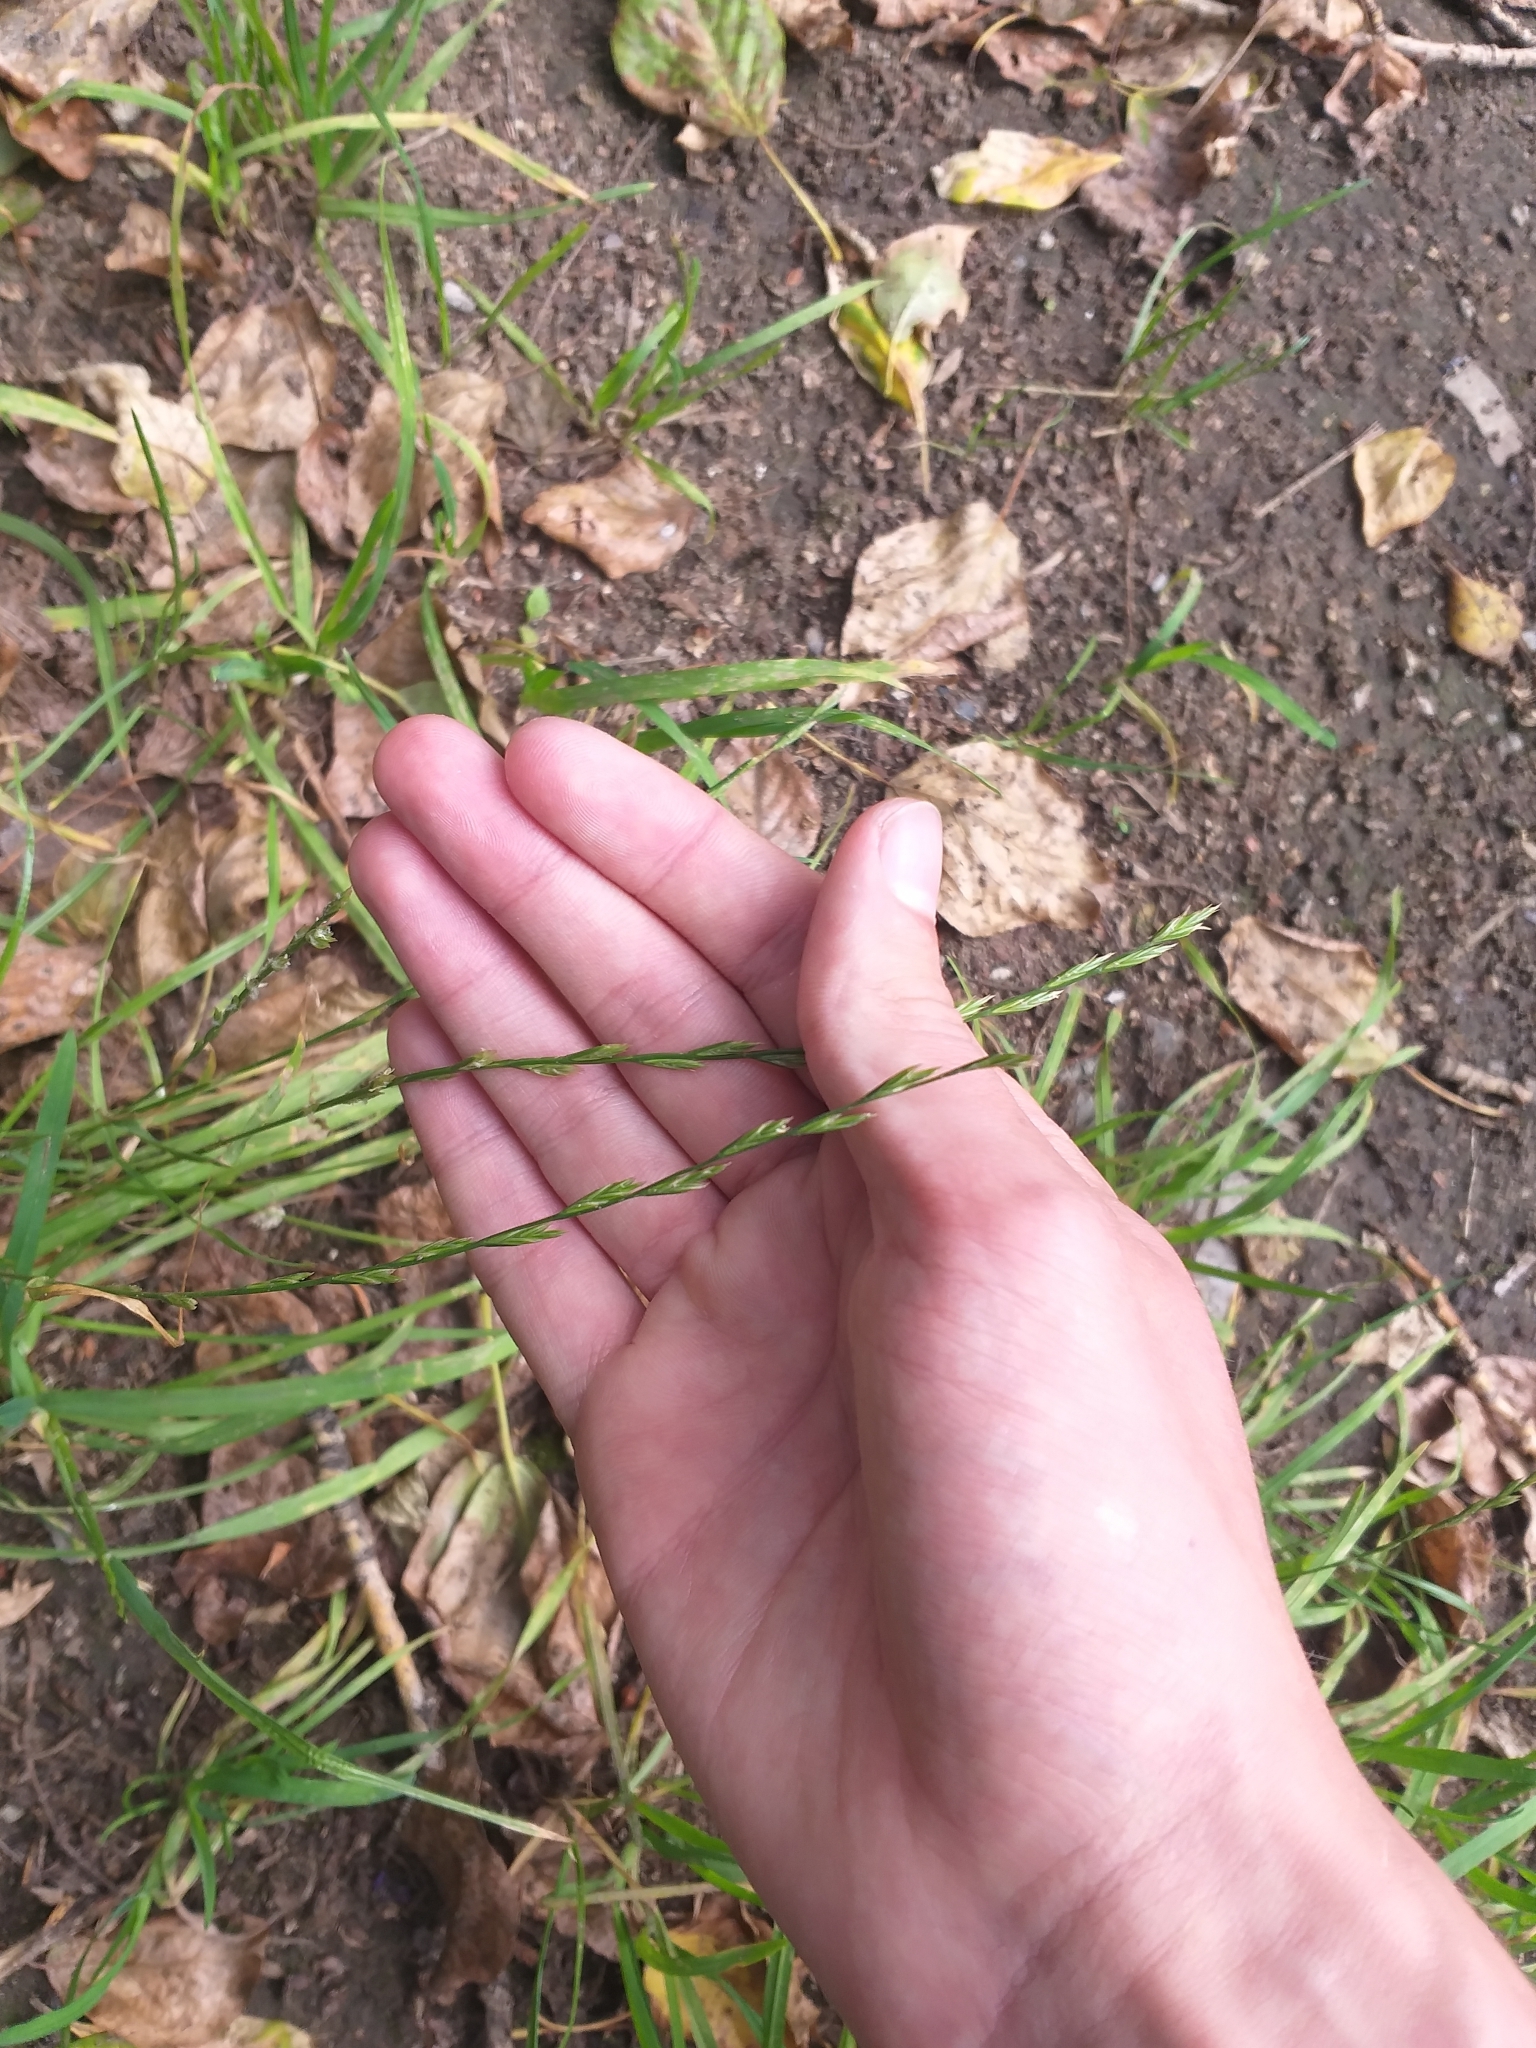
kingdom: Plantae
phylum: Tracheophyta
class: Liliopsida
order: Poales
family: Poaceae
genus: Lolium
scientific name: Lolium perenne
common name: Perennial ryegrass
